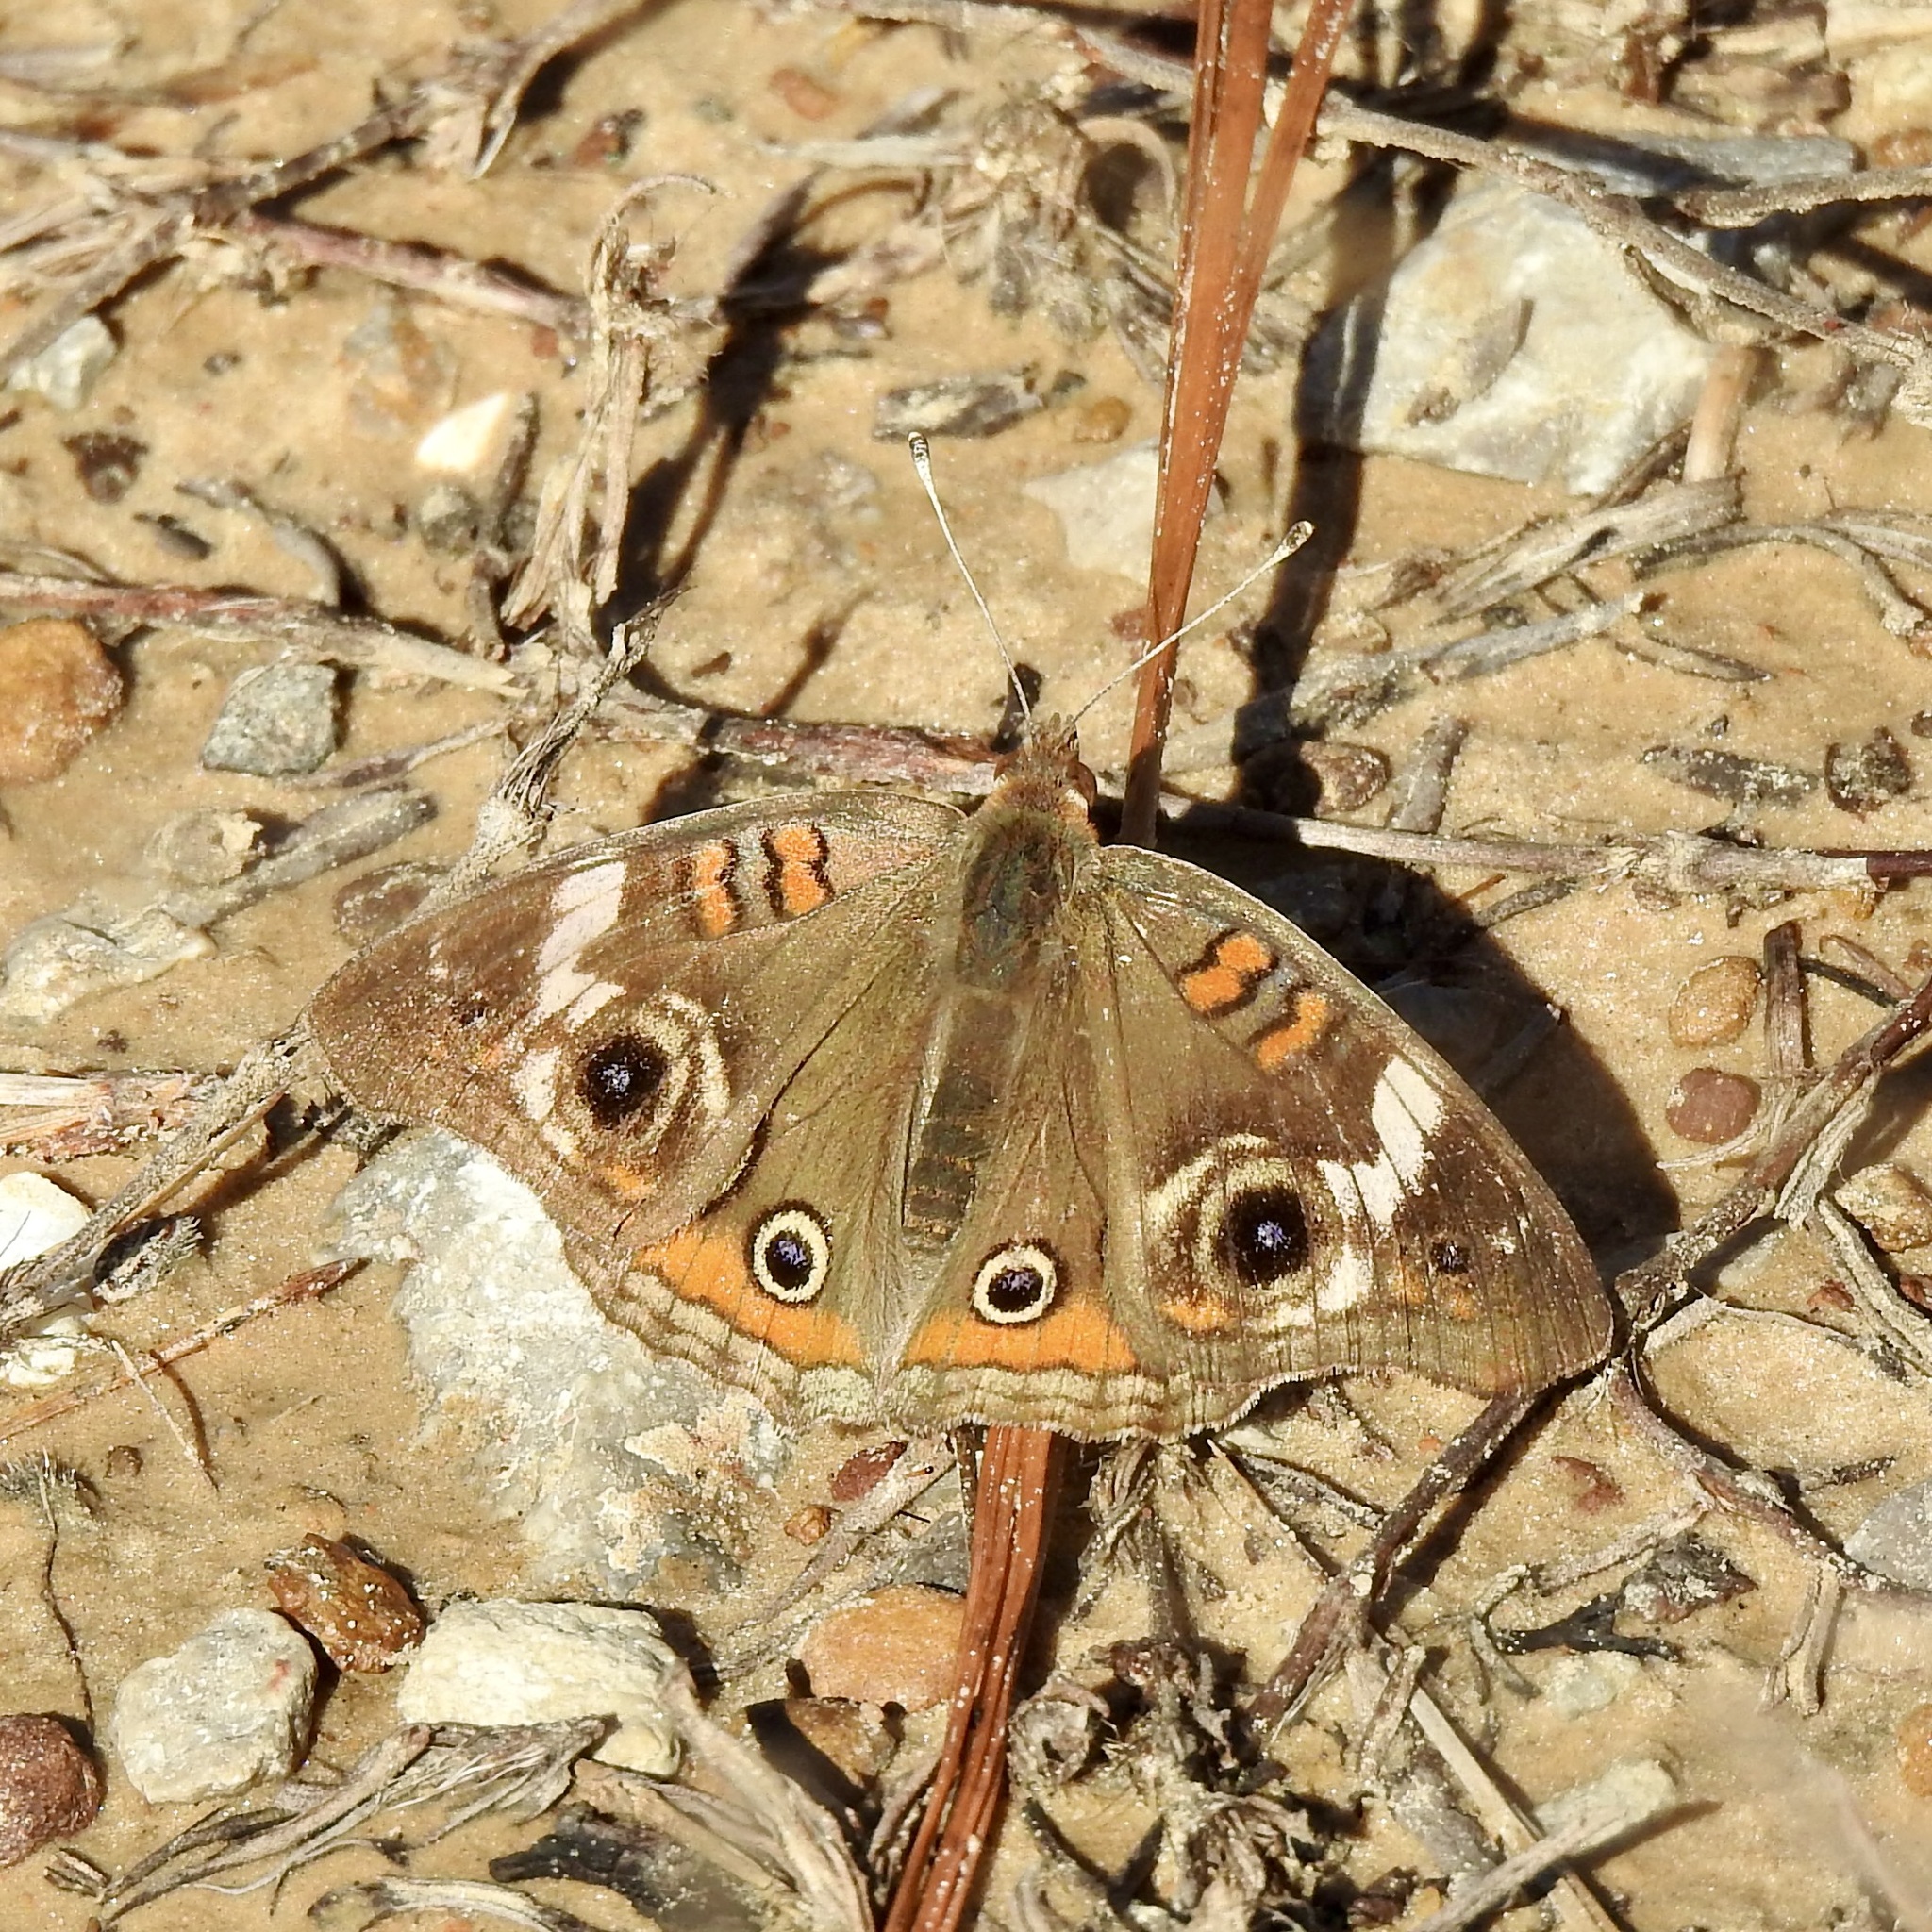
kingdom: Animalia
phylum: Arthropoda
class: Insecta
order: Lepidoptera
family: Nymphalidae
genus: Junonia
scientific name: Junonia coenia
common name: Common buckeye
